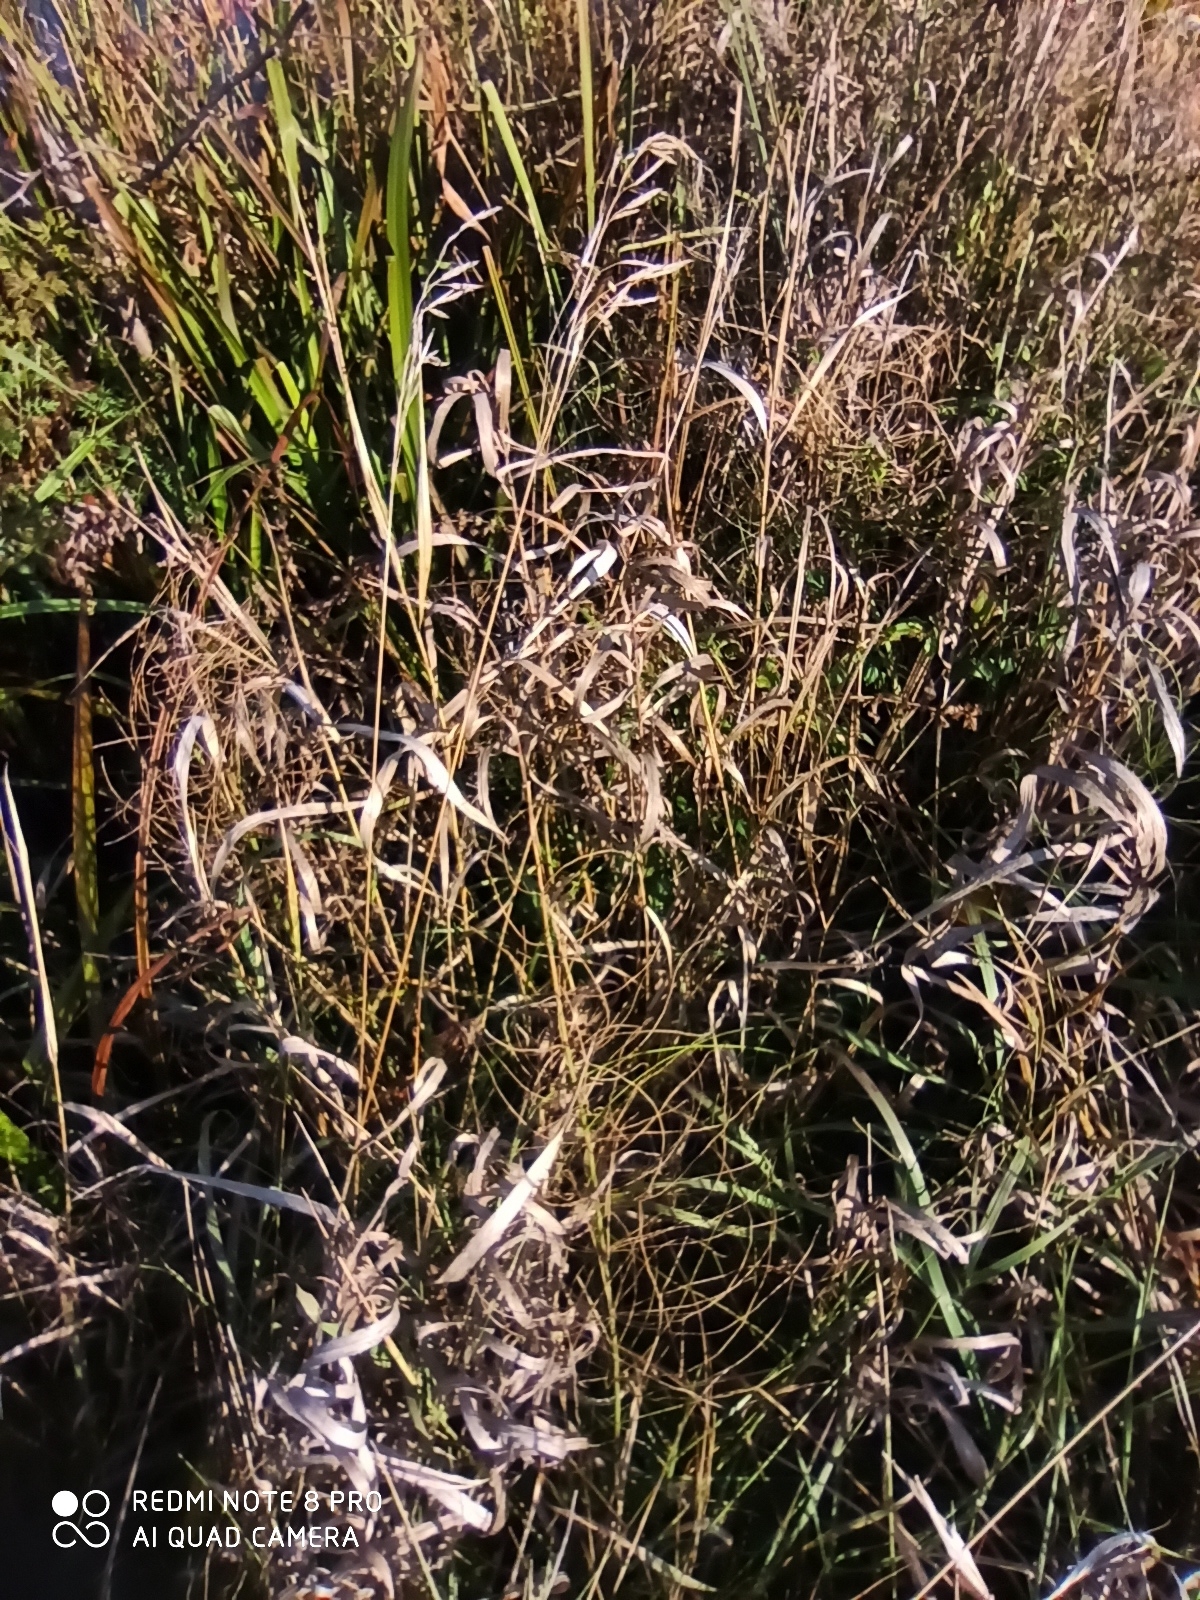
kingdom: Plantae
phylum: Tracheophyta
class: Liliopsida
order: Poales
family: Poaceae
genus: Bromus
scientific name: Bromus inermis
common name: Smooth brome
